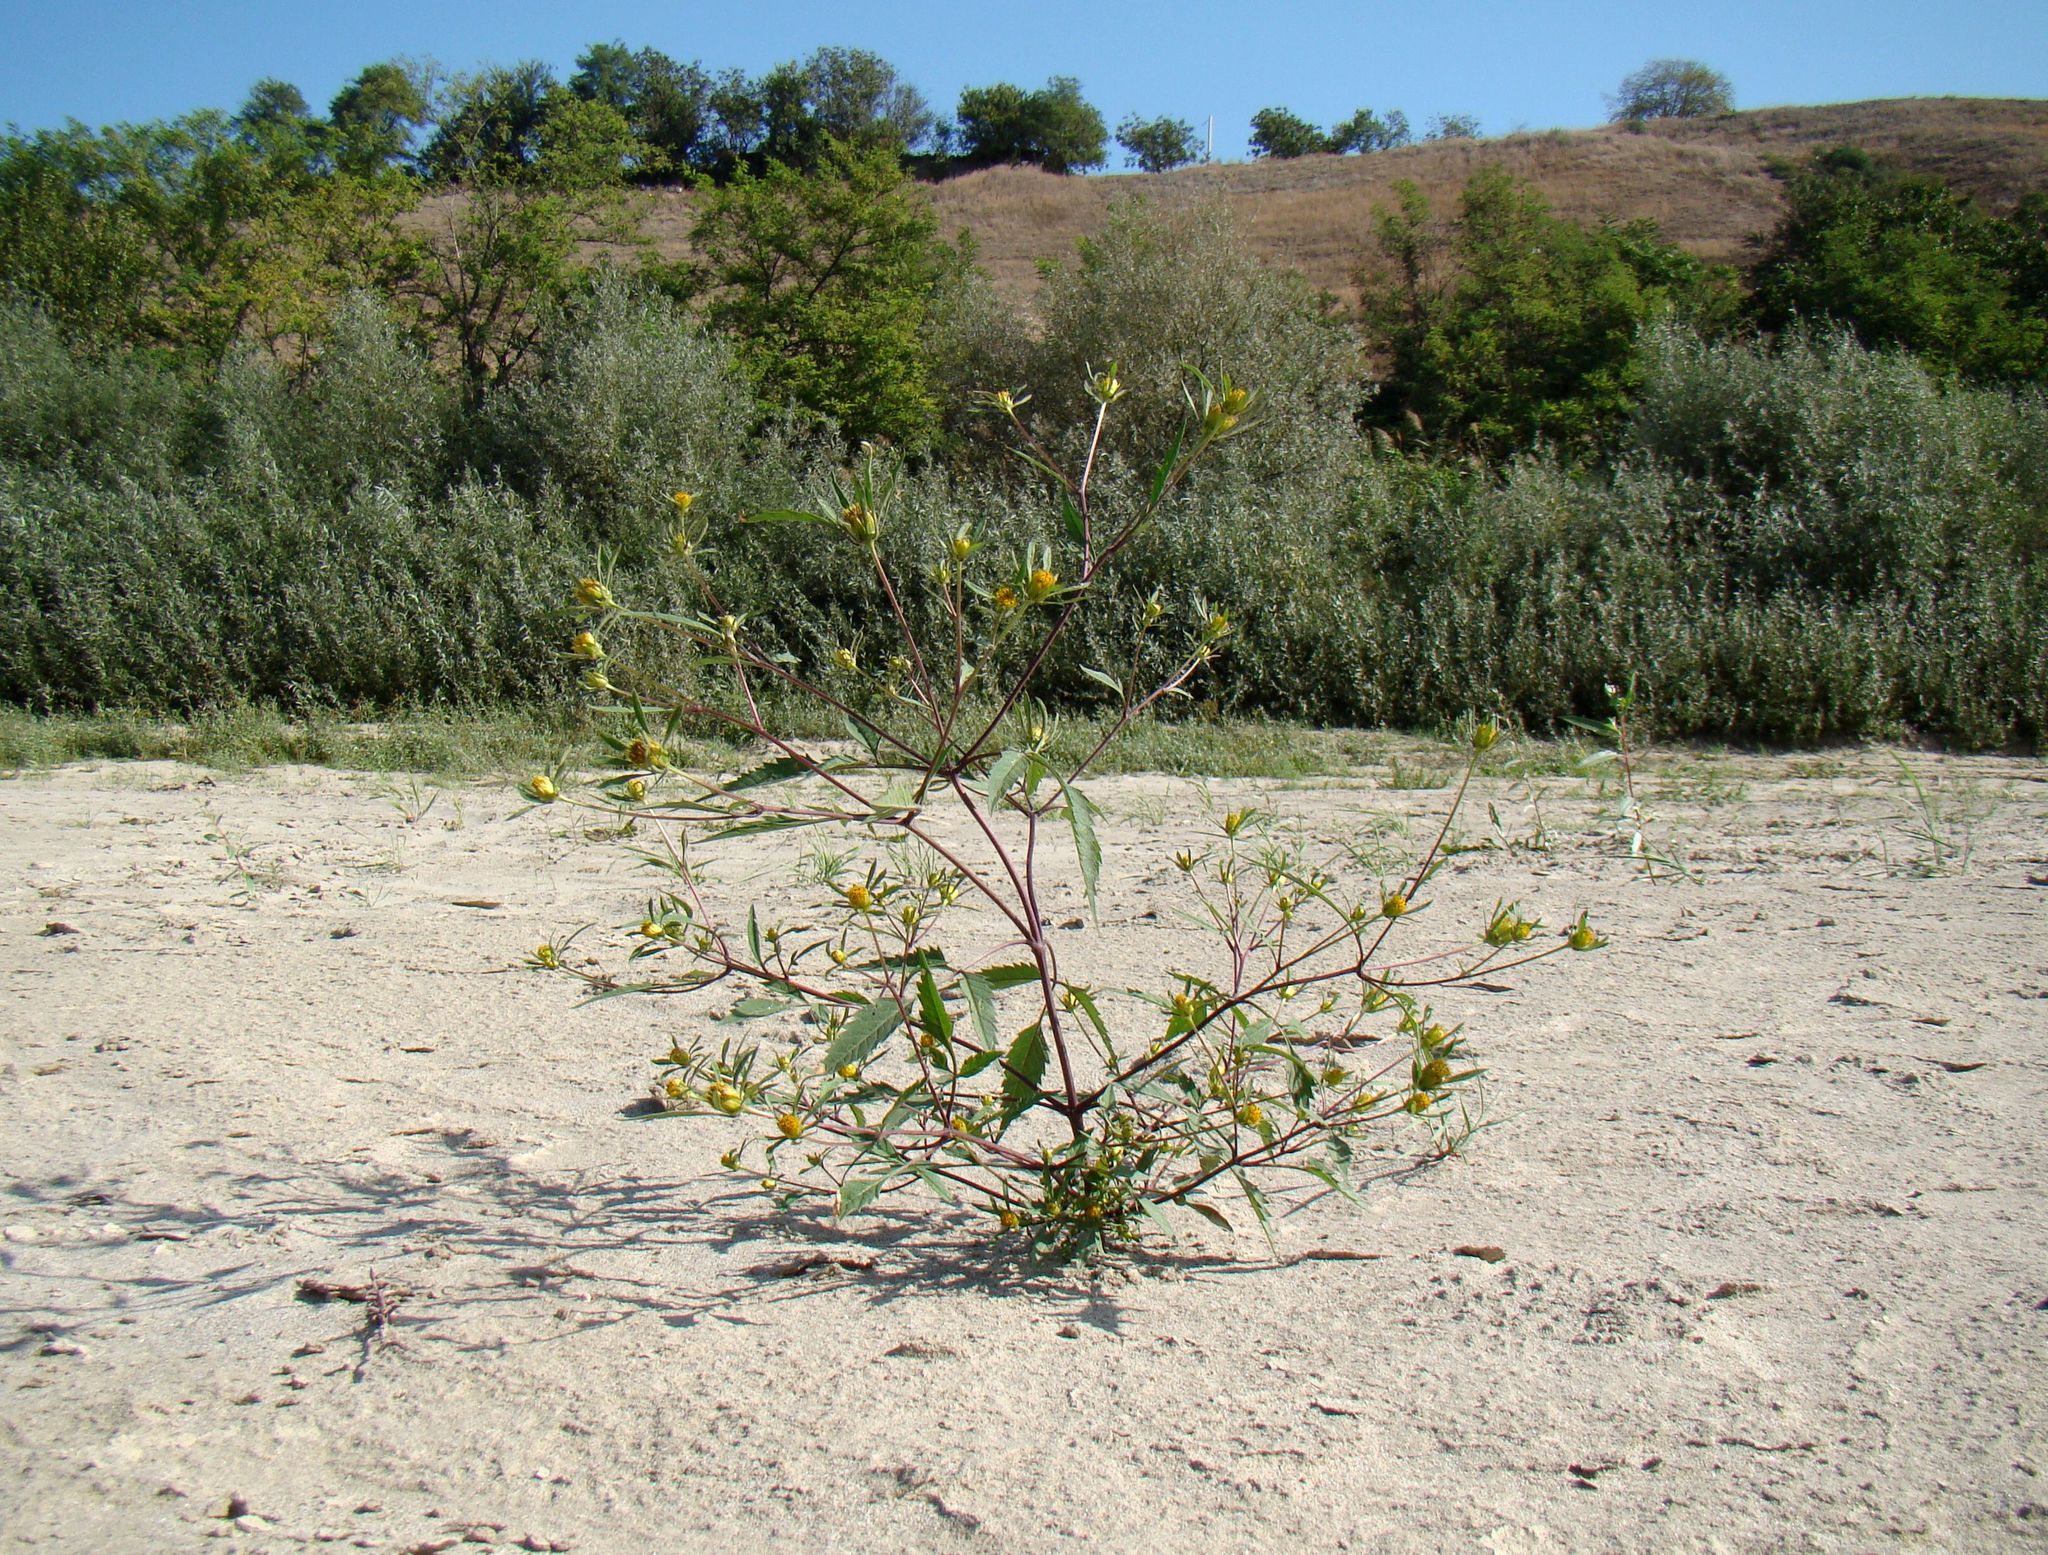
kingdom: Plantae
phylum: Tracheophyta
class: Magnoliopsida
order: Asterales
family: Asteraceae
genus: Bidens
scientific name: Bidens frondosa
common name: Beggarticks
